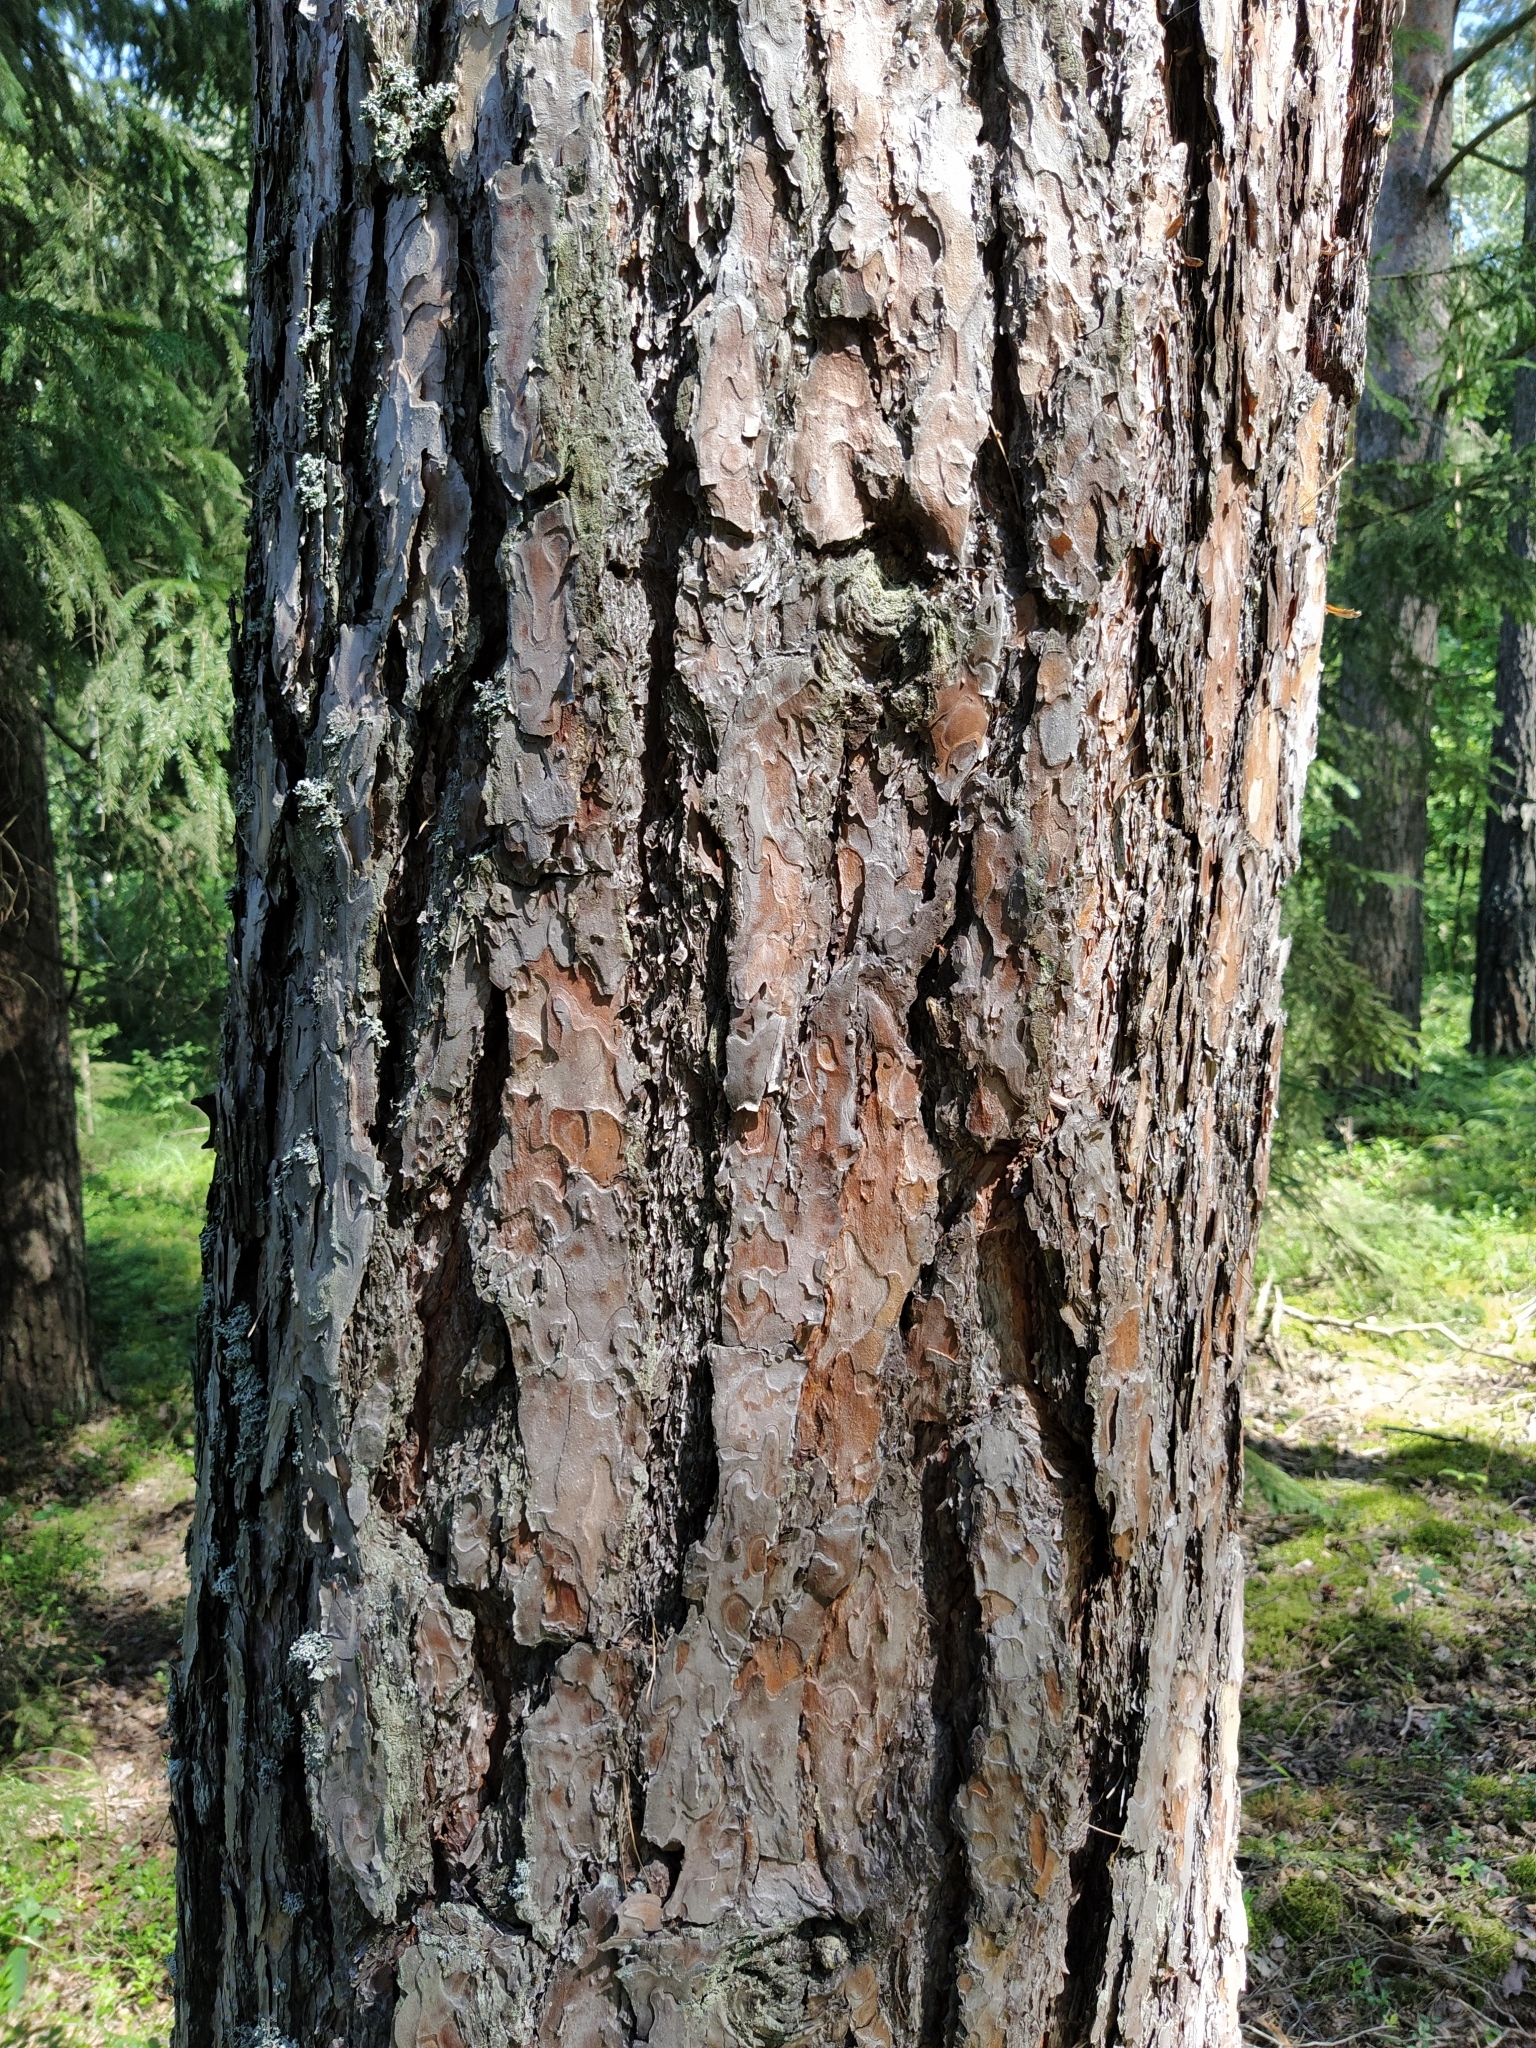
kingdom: Plantae
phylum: Tracheophyta
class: Pinopsida
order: Pinales
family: Pinaceae
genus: Pinus
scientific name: Pinus sylvestris
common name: Scots pine
